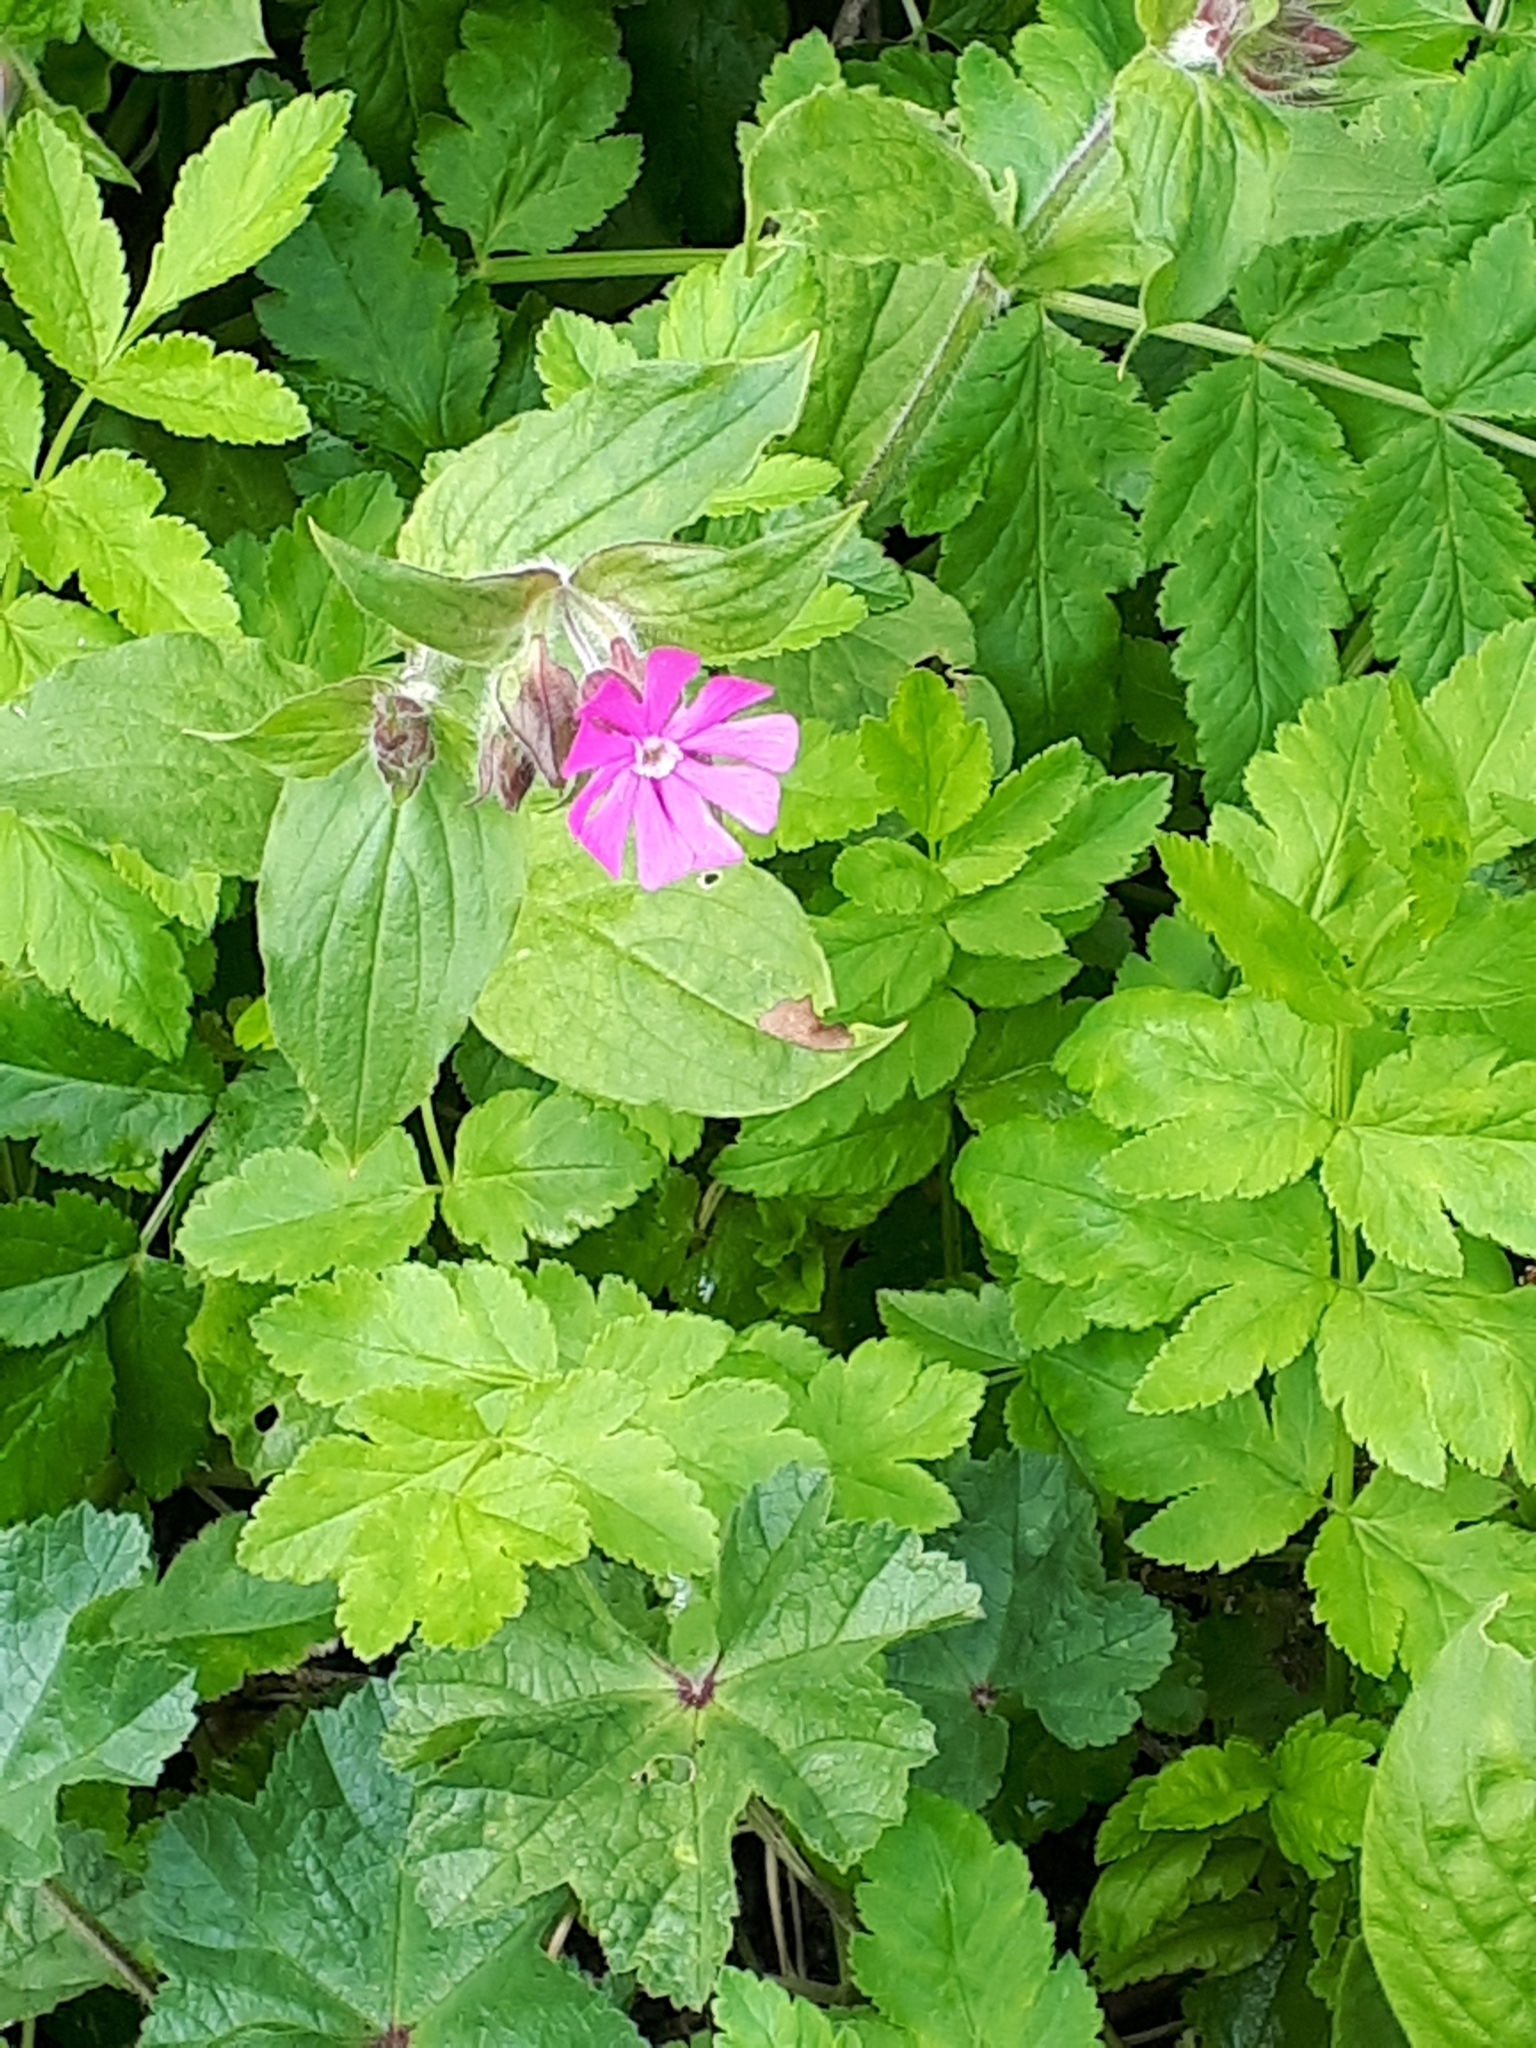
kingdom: Plantae
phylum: Tracheophyta
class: Magnoliopsida
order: Caryophyllales
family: Caryophyllaceae
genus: Silene
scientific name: Silene dioica
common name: Red campion
